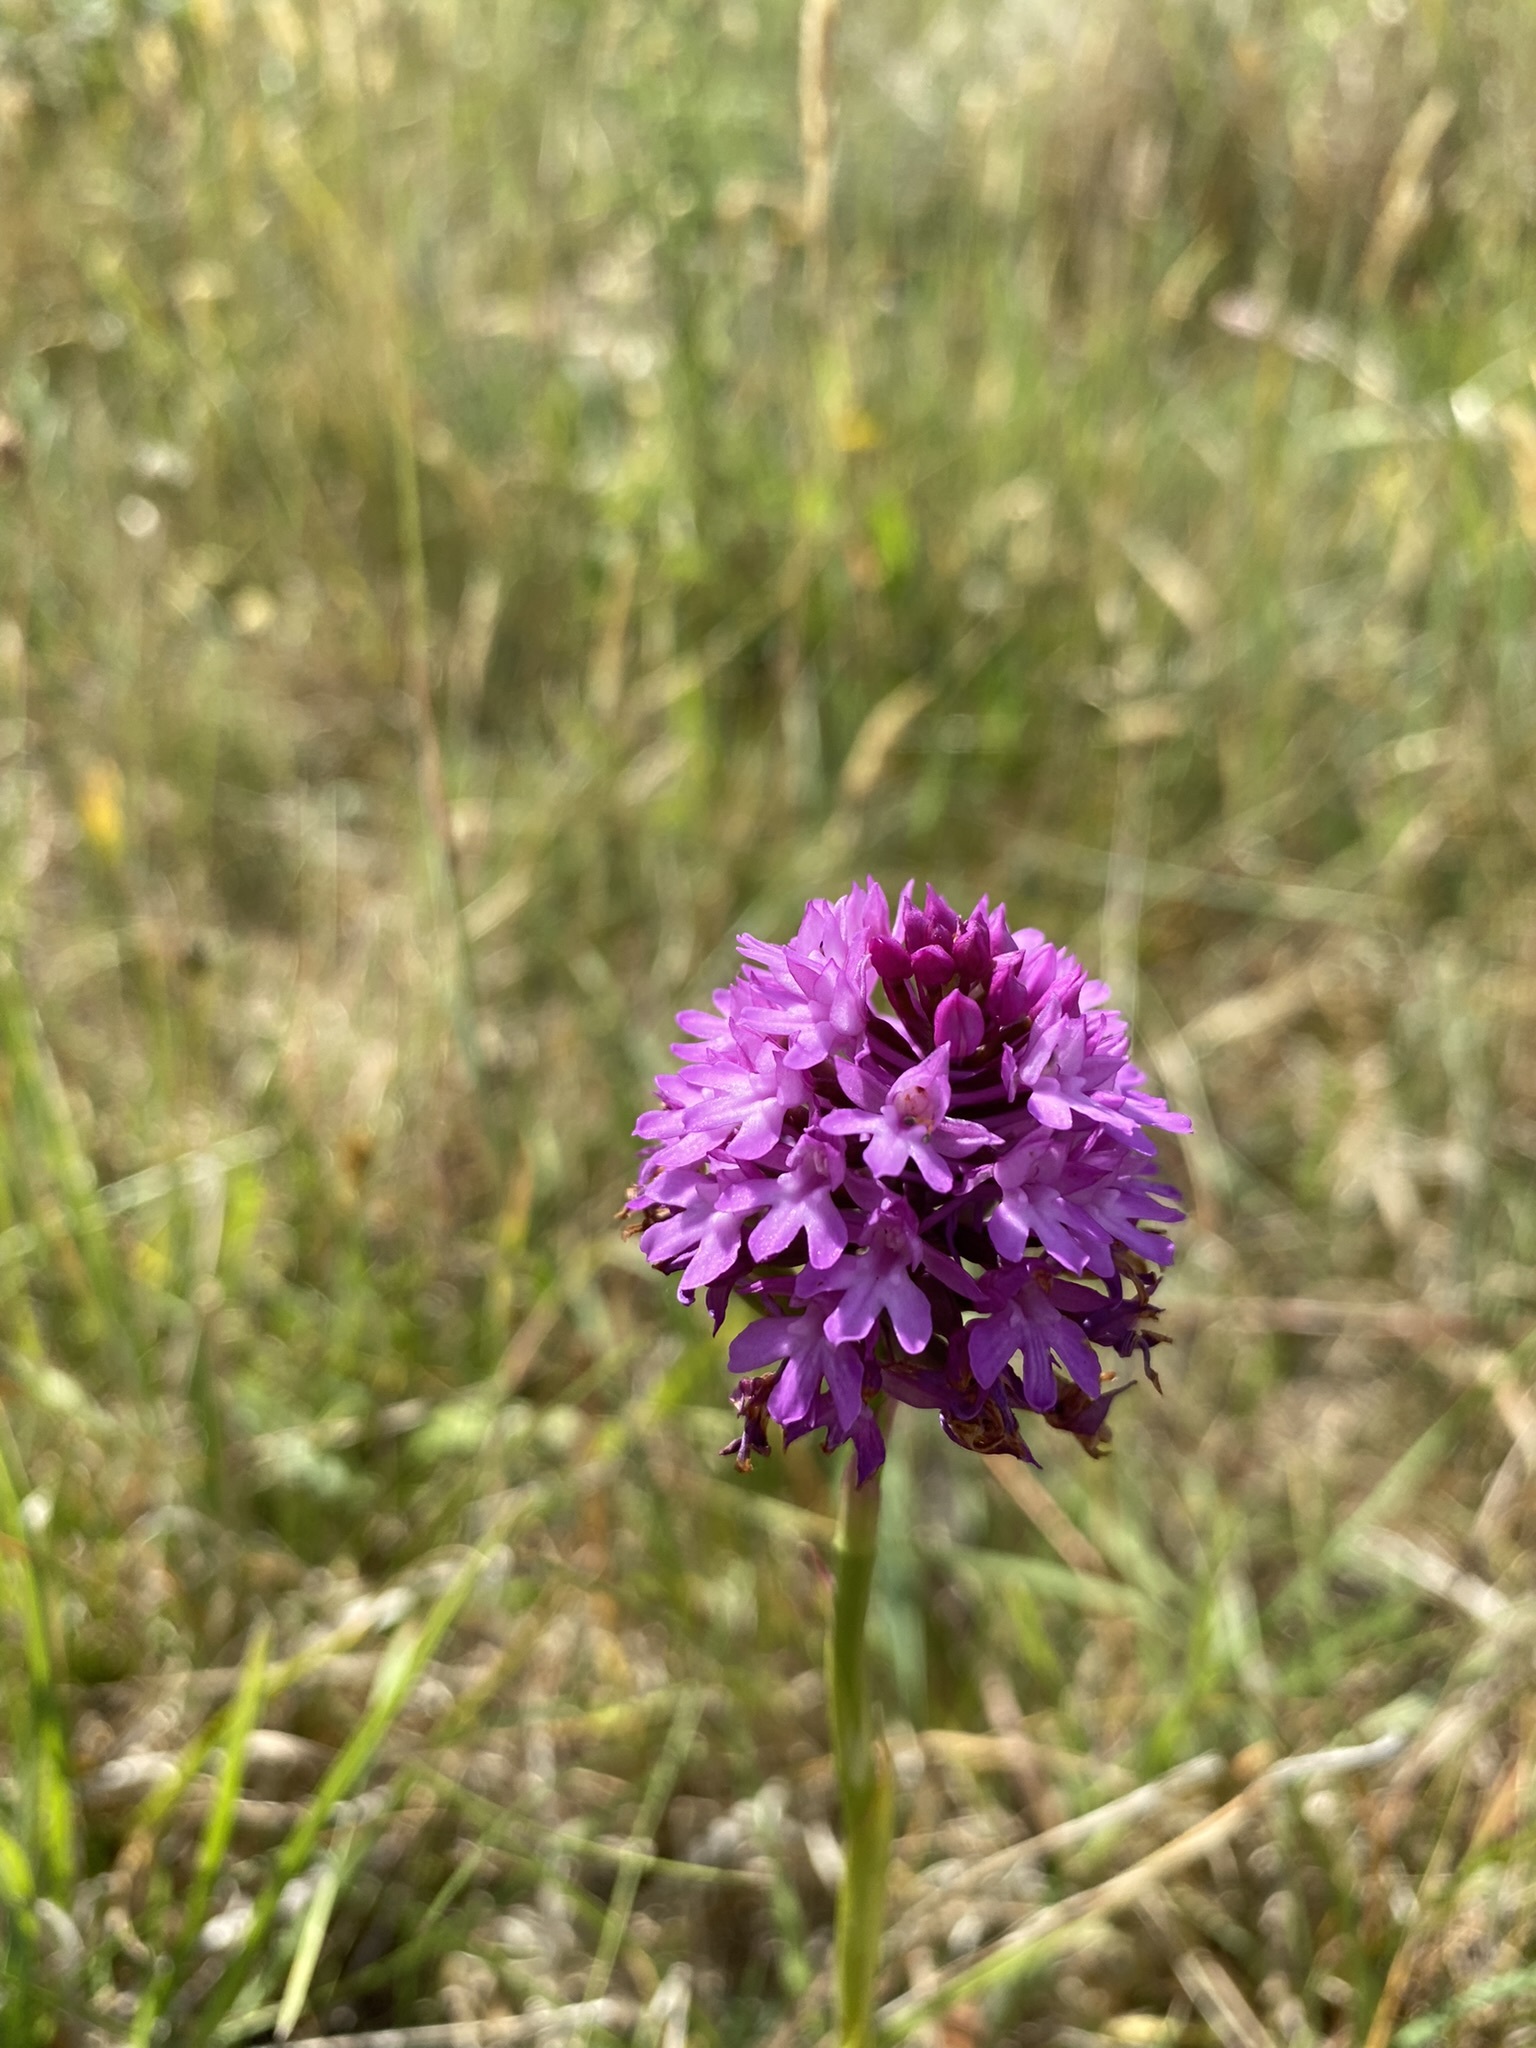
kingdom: Plantae
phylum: Tracheophyta
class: Liliopsida
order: Asparagales
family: Orchidaceae
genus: Anacamptis
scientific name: Anacamptis pyramidalis
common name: Pyramidal orchid
